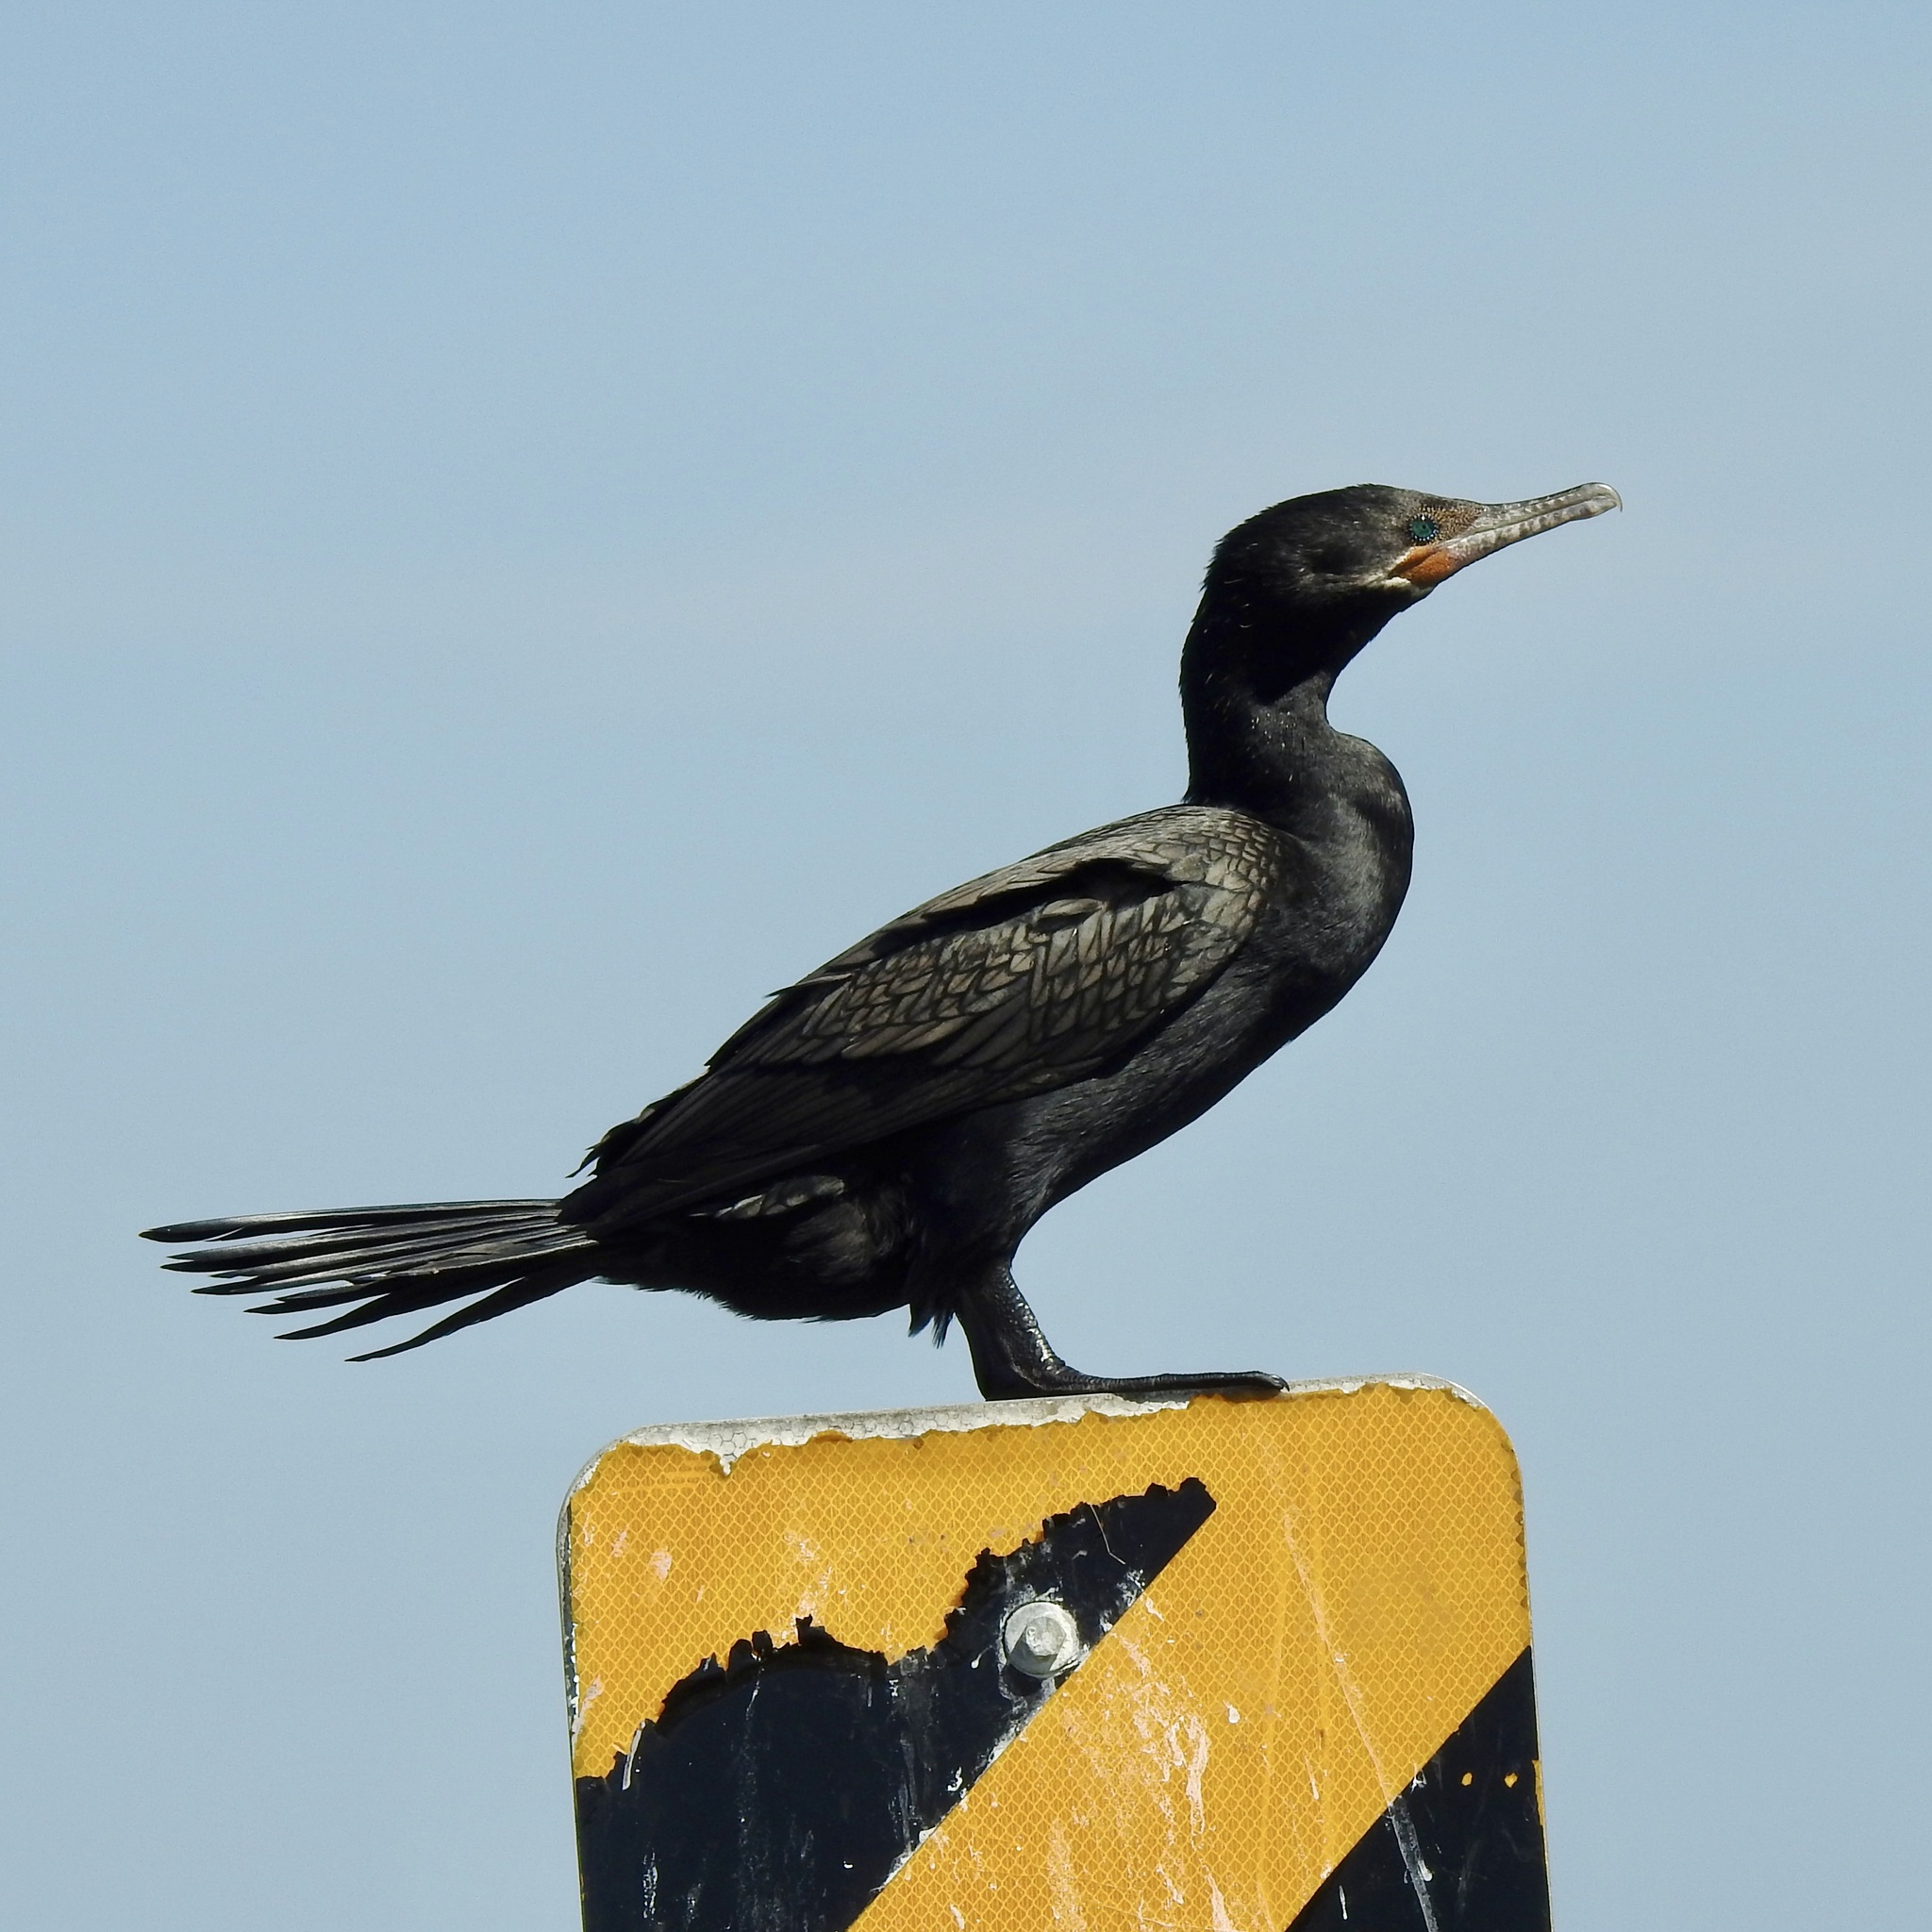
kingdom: Animalia
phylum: Chordata
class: Aves
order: Suliformes
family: Phalacrocoracidae
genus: Phalacrocorax
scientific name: Phalacrocorax brasilianus
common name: Neotropic cormorant
